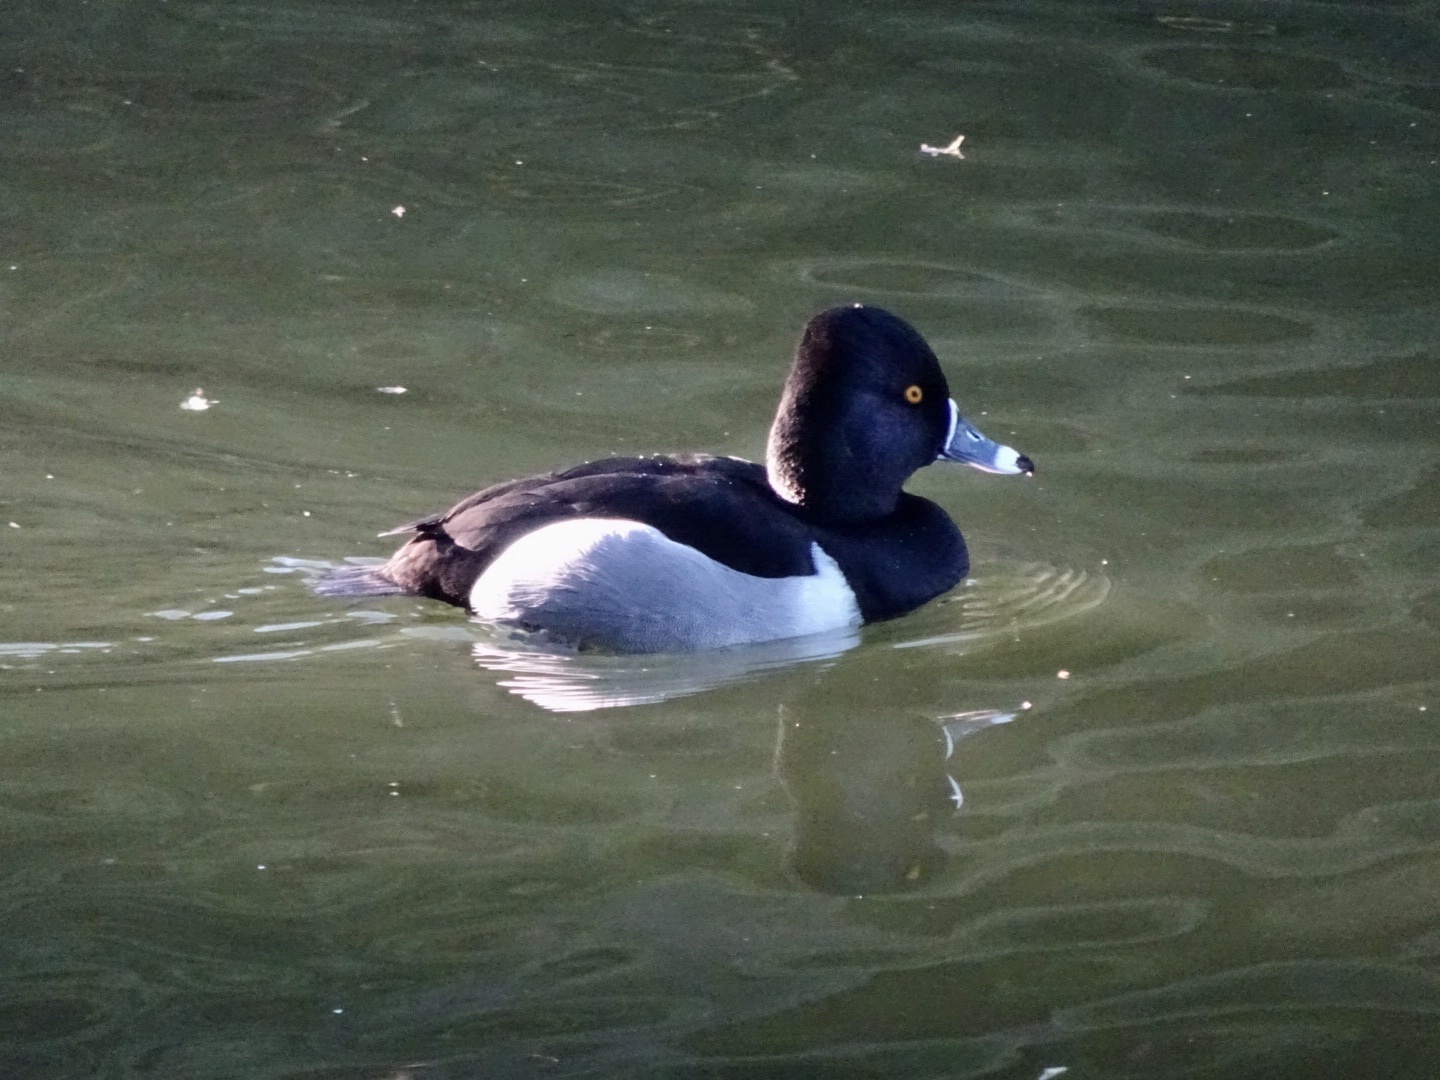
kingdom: Animalia
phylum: Chordata
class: Aves
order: Anseriformes
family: Anatidae
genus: Aythya
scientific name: Aythya collaris
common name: Ring-necked duck
